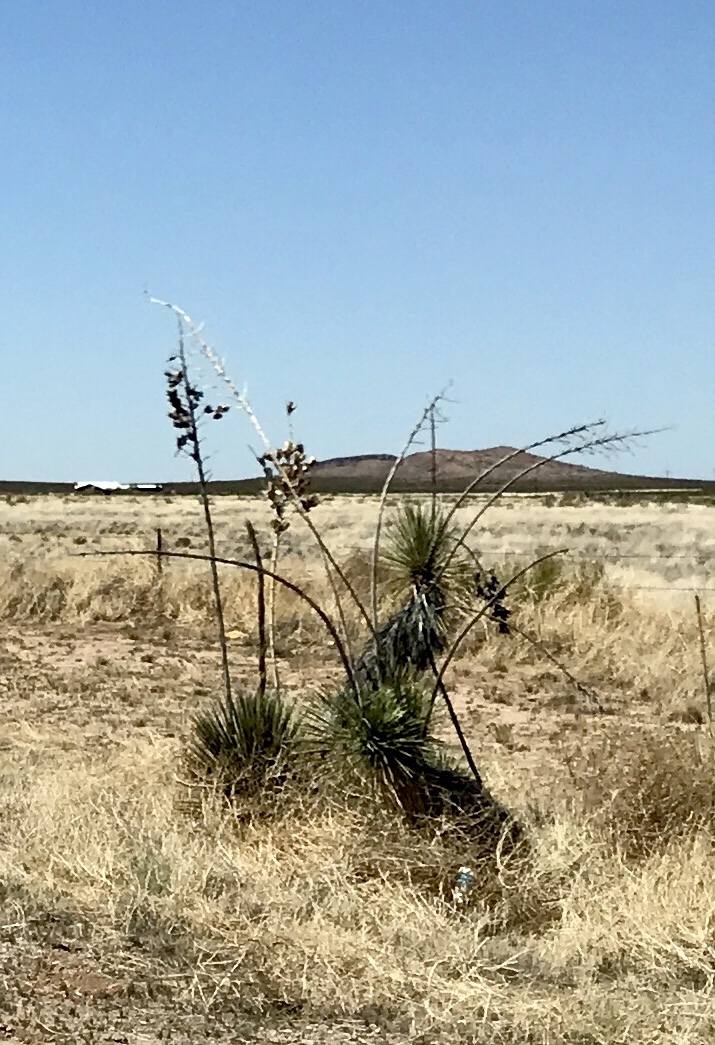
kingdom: Plantae
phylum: Tracheophyta
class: Liliopsida
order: Asparagales
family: Asparagaceae
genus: Yucca
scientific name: Yucca elata
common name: Palmella
